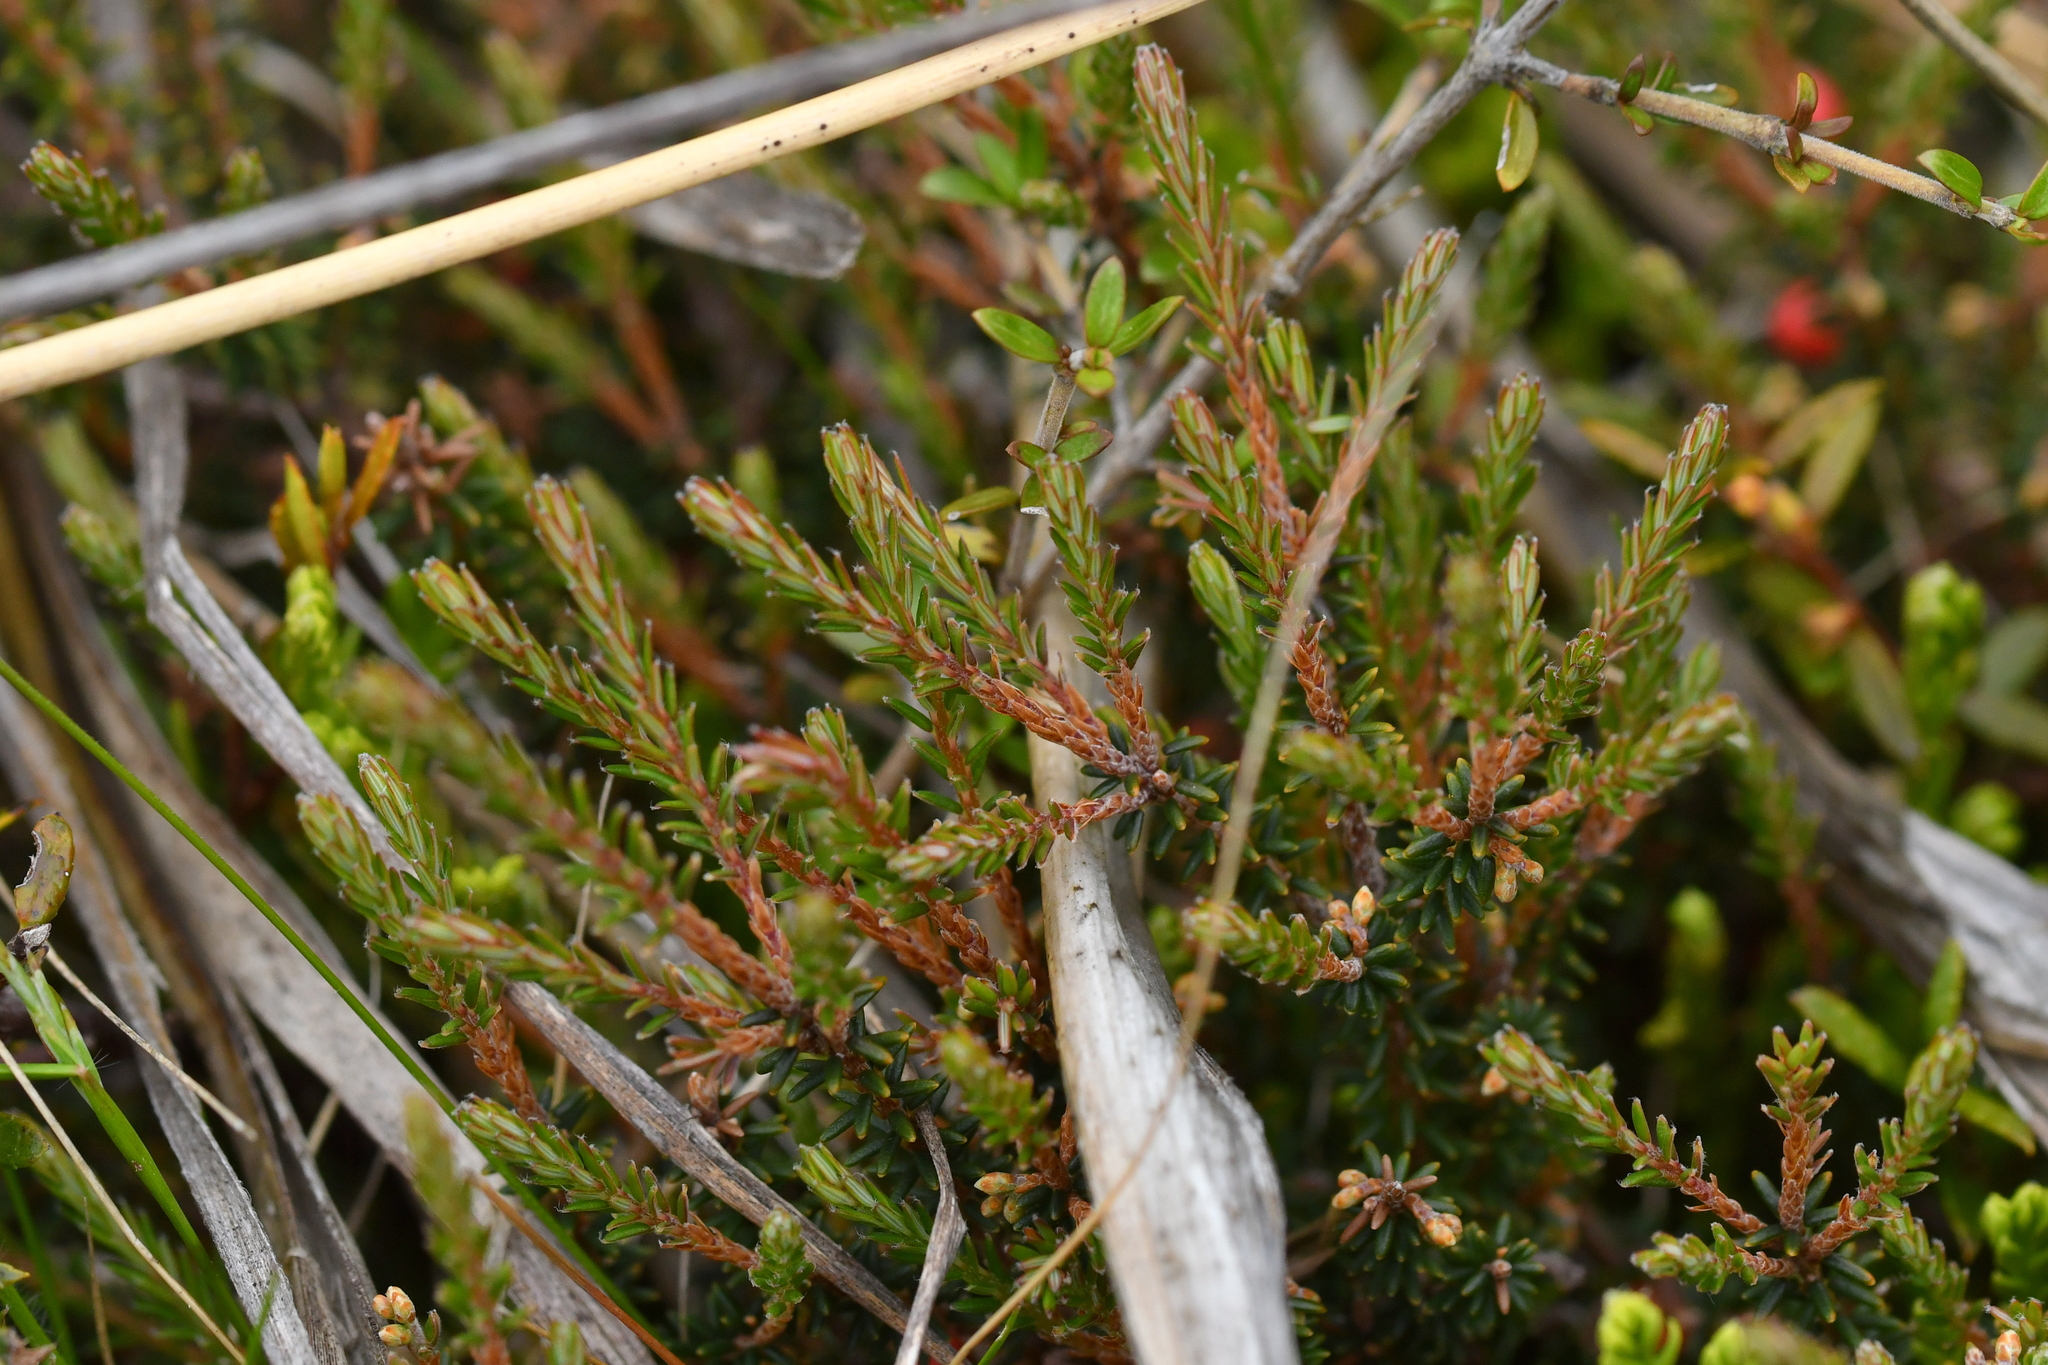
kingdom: Plantae
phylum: Tracheophyta
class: Magnoliopsida
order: Ericales
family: Ericaceae
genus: Androstoma
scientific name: Androstoma empetrifolia
